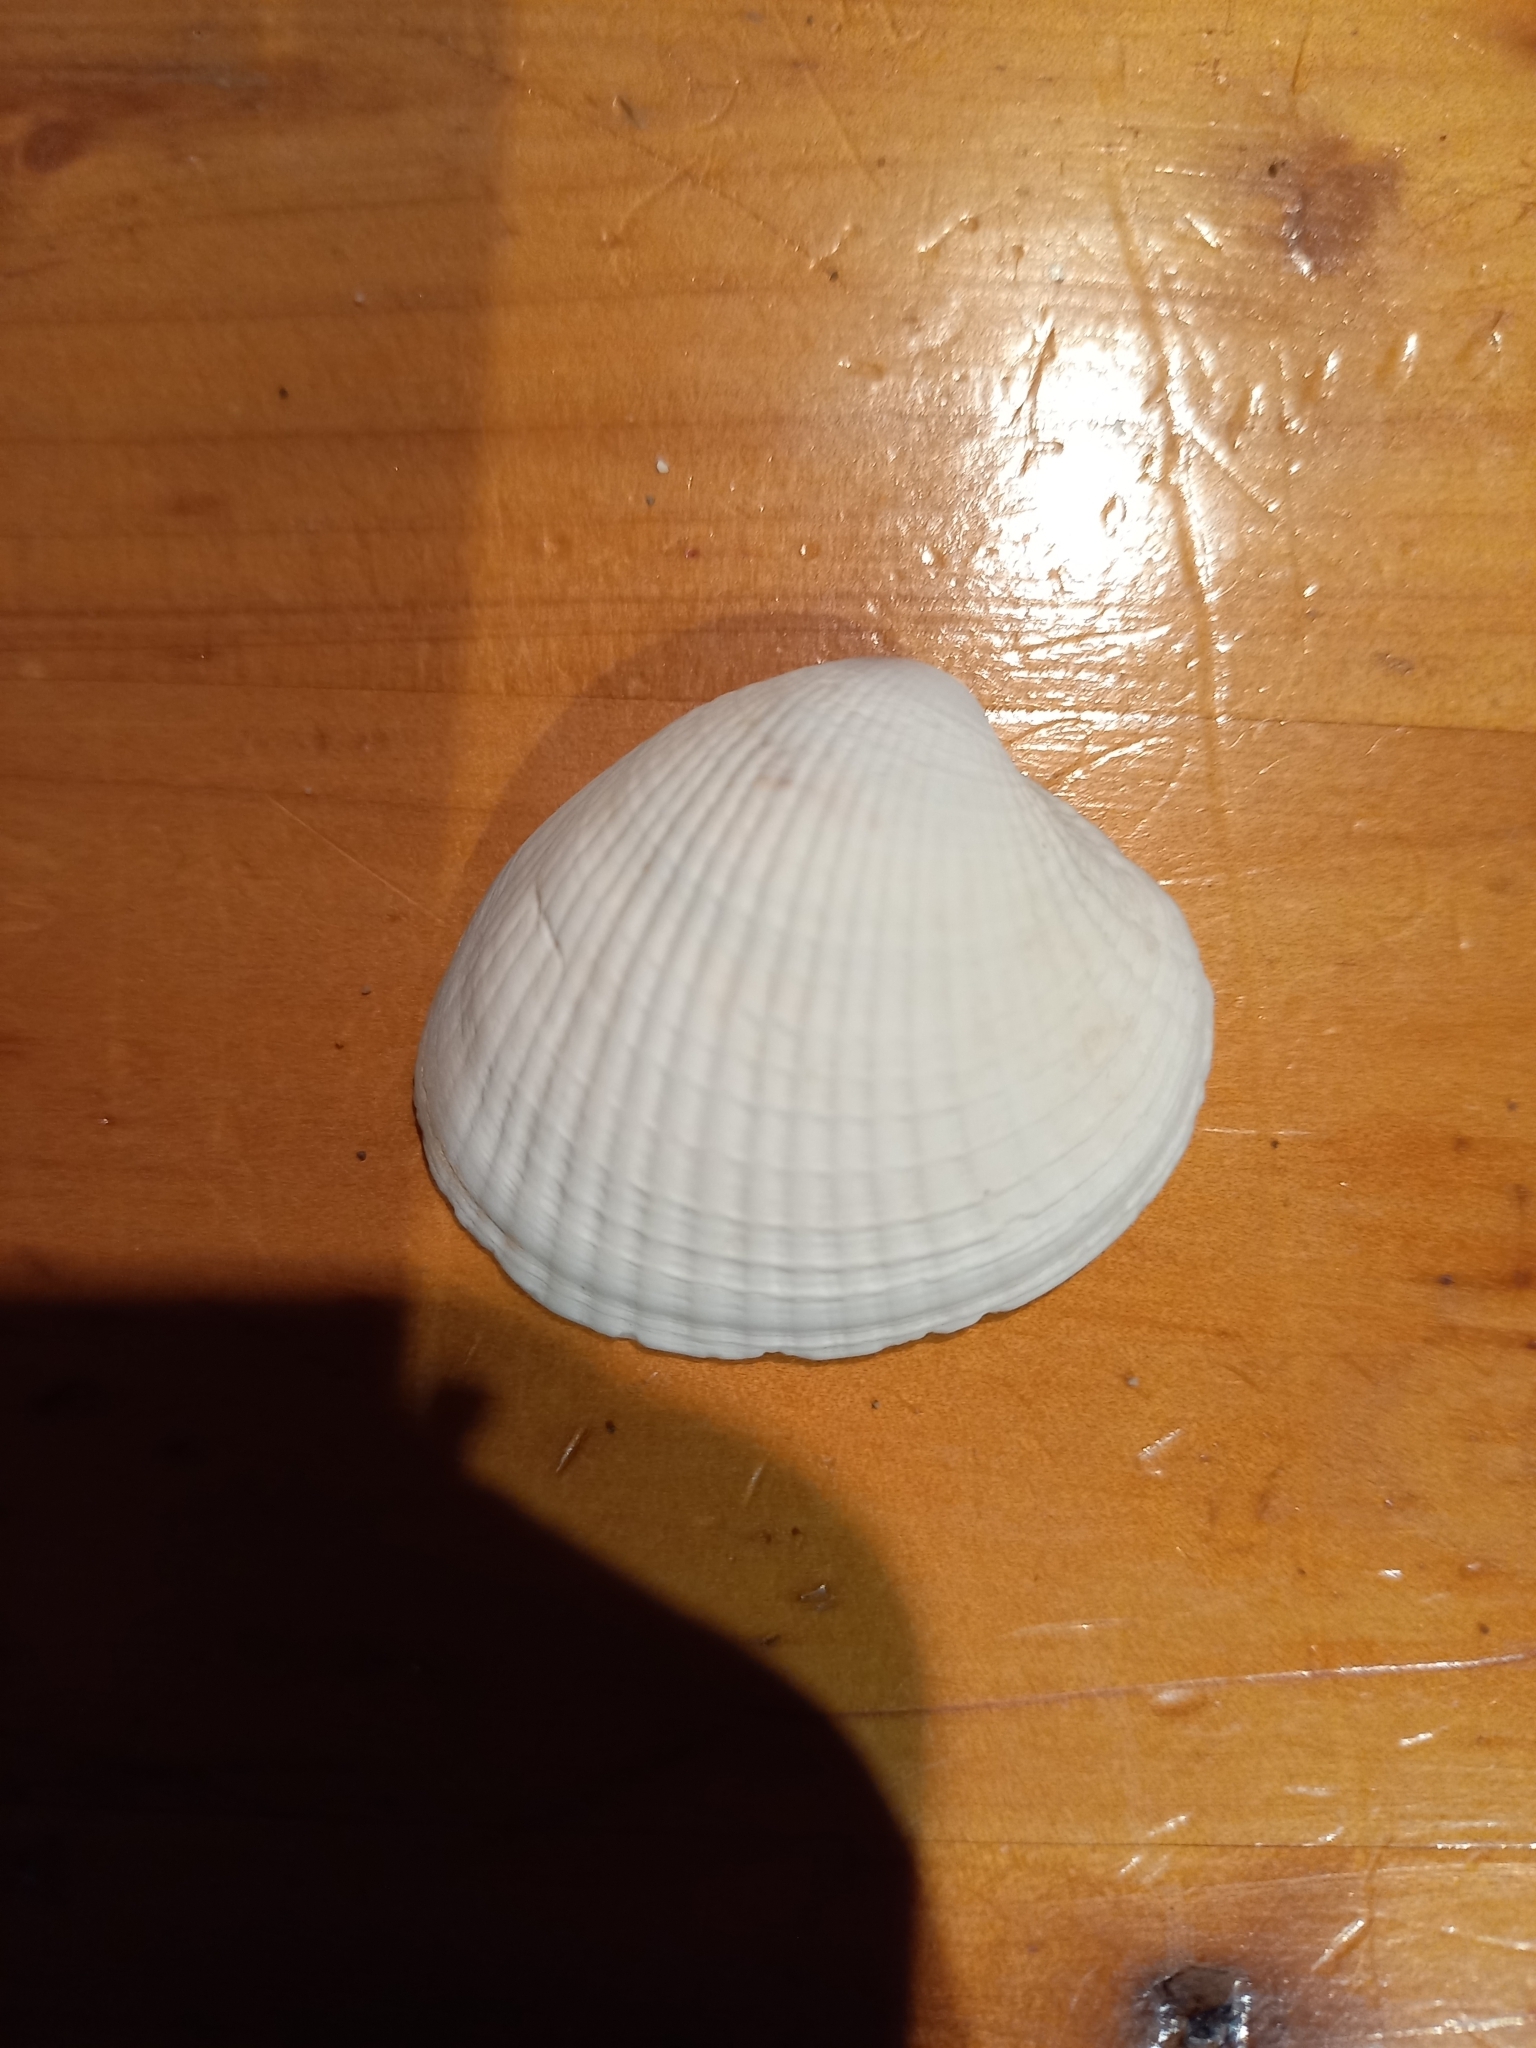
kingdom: Animalia
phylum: Mollusca
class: Bivalvia
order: Venerida
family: Veneridae
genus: Austrovenus
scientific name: Austrovenus stutchburyi
